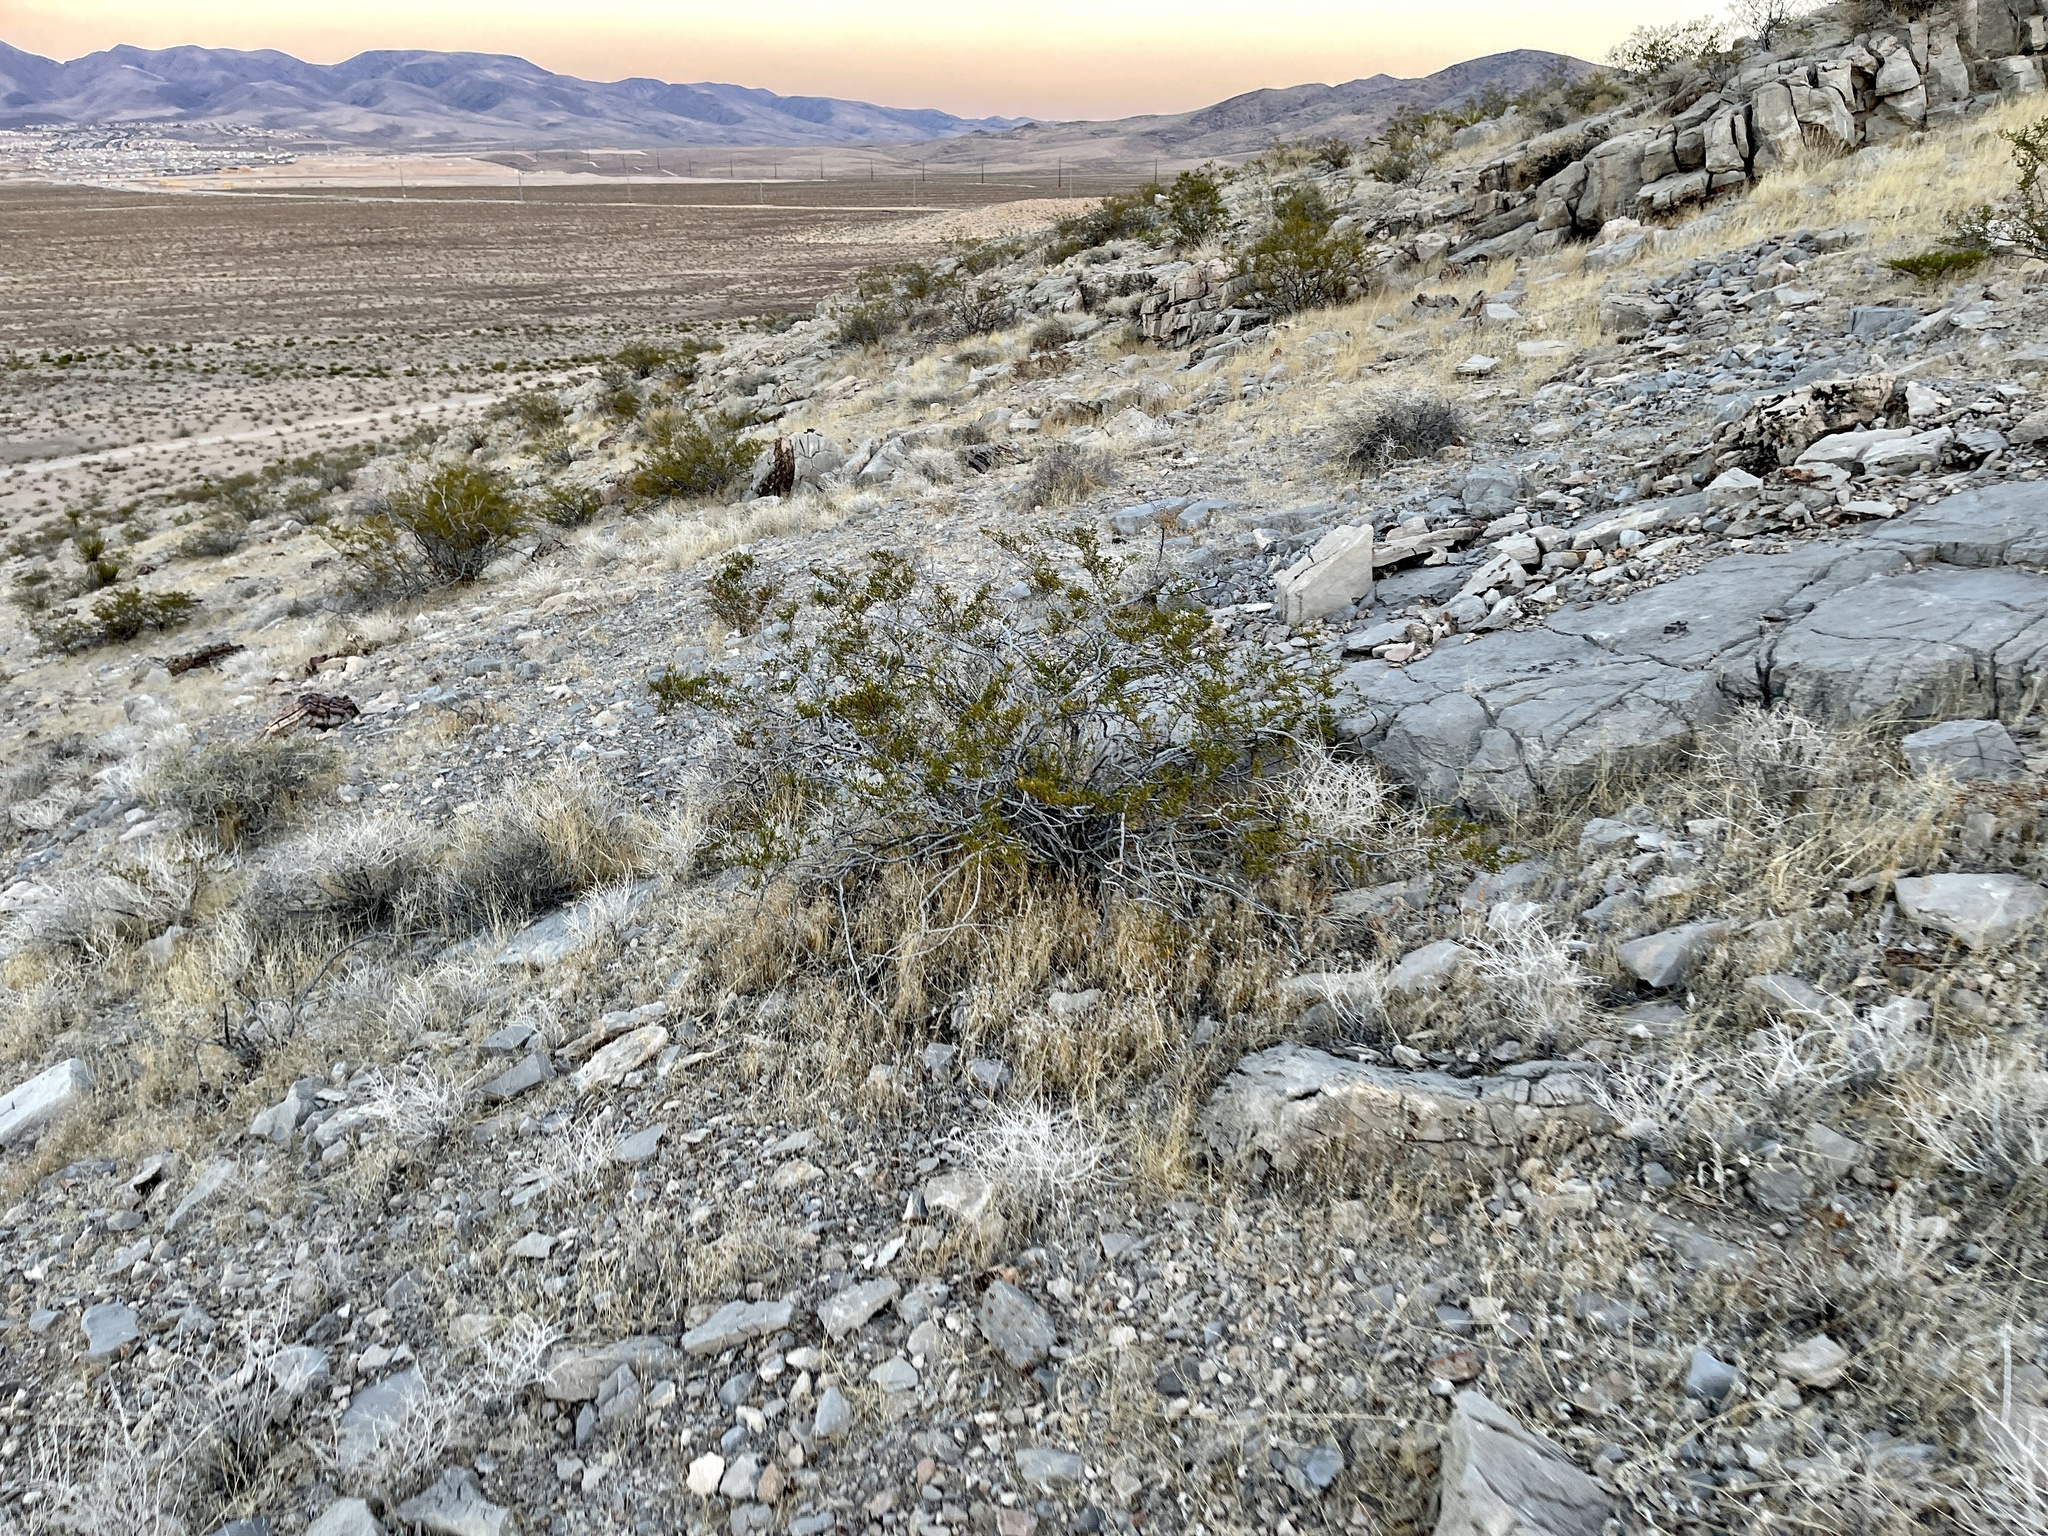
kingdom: Plantae
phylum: Tracheophyta
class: Magnoliopsida
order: Zygophyllales
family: Zygophyllaceae
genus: Larrea
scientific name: Larrea tridentata
